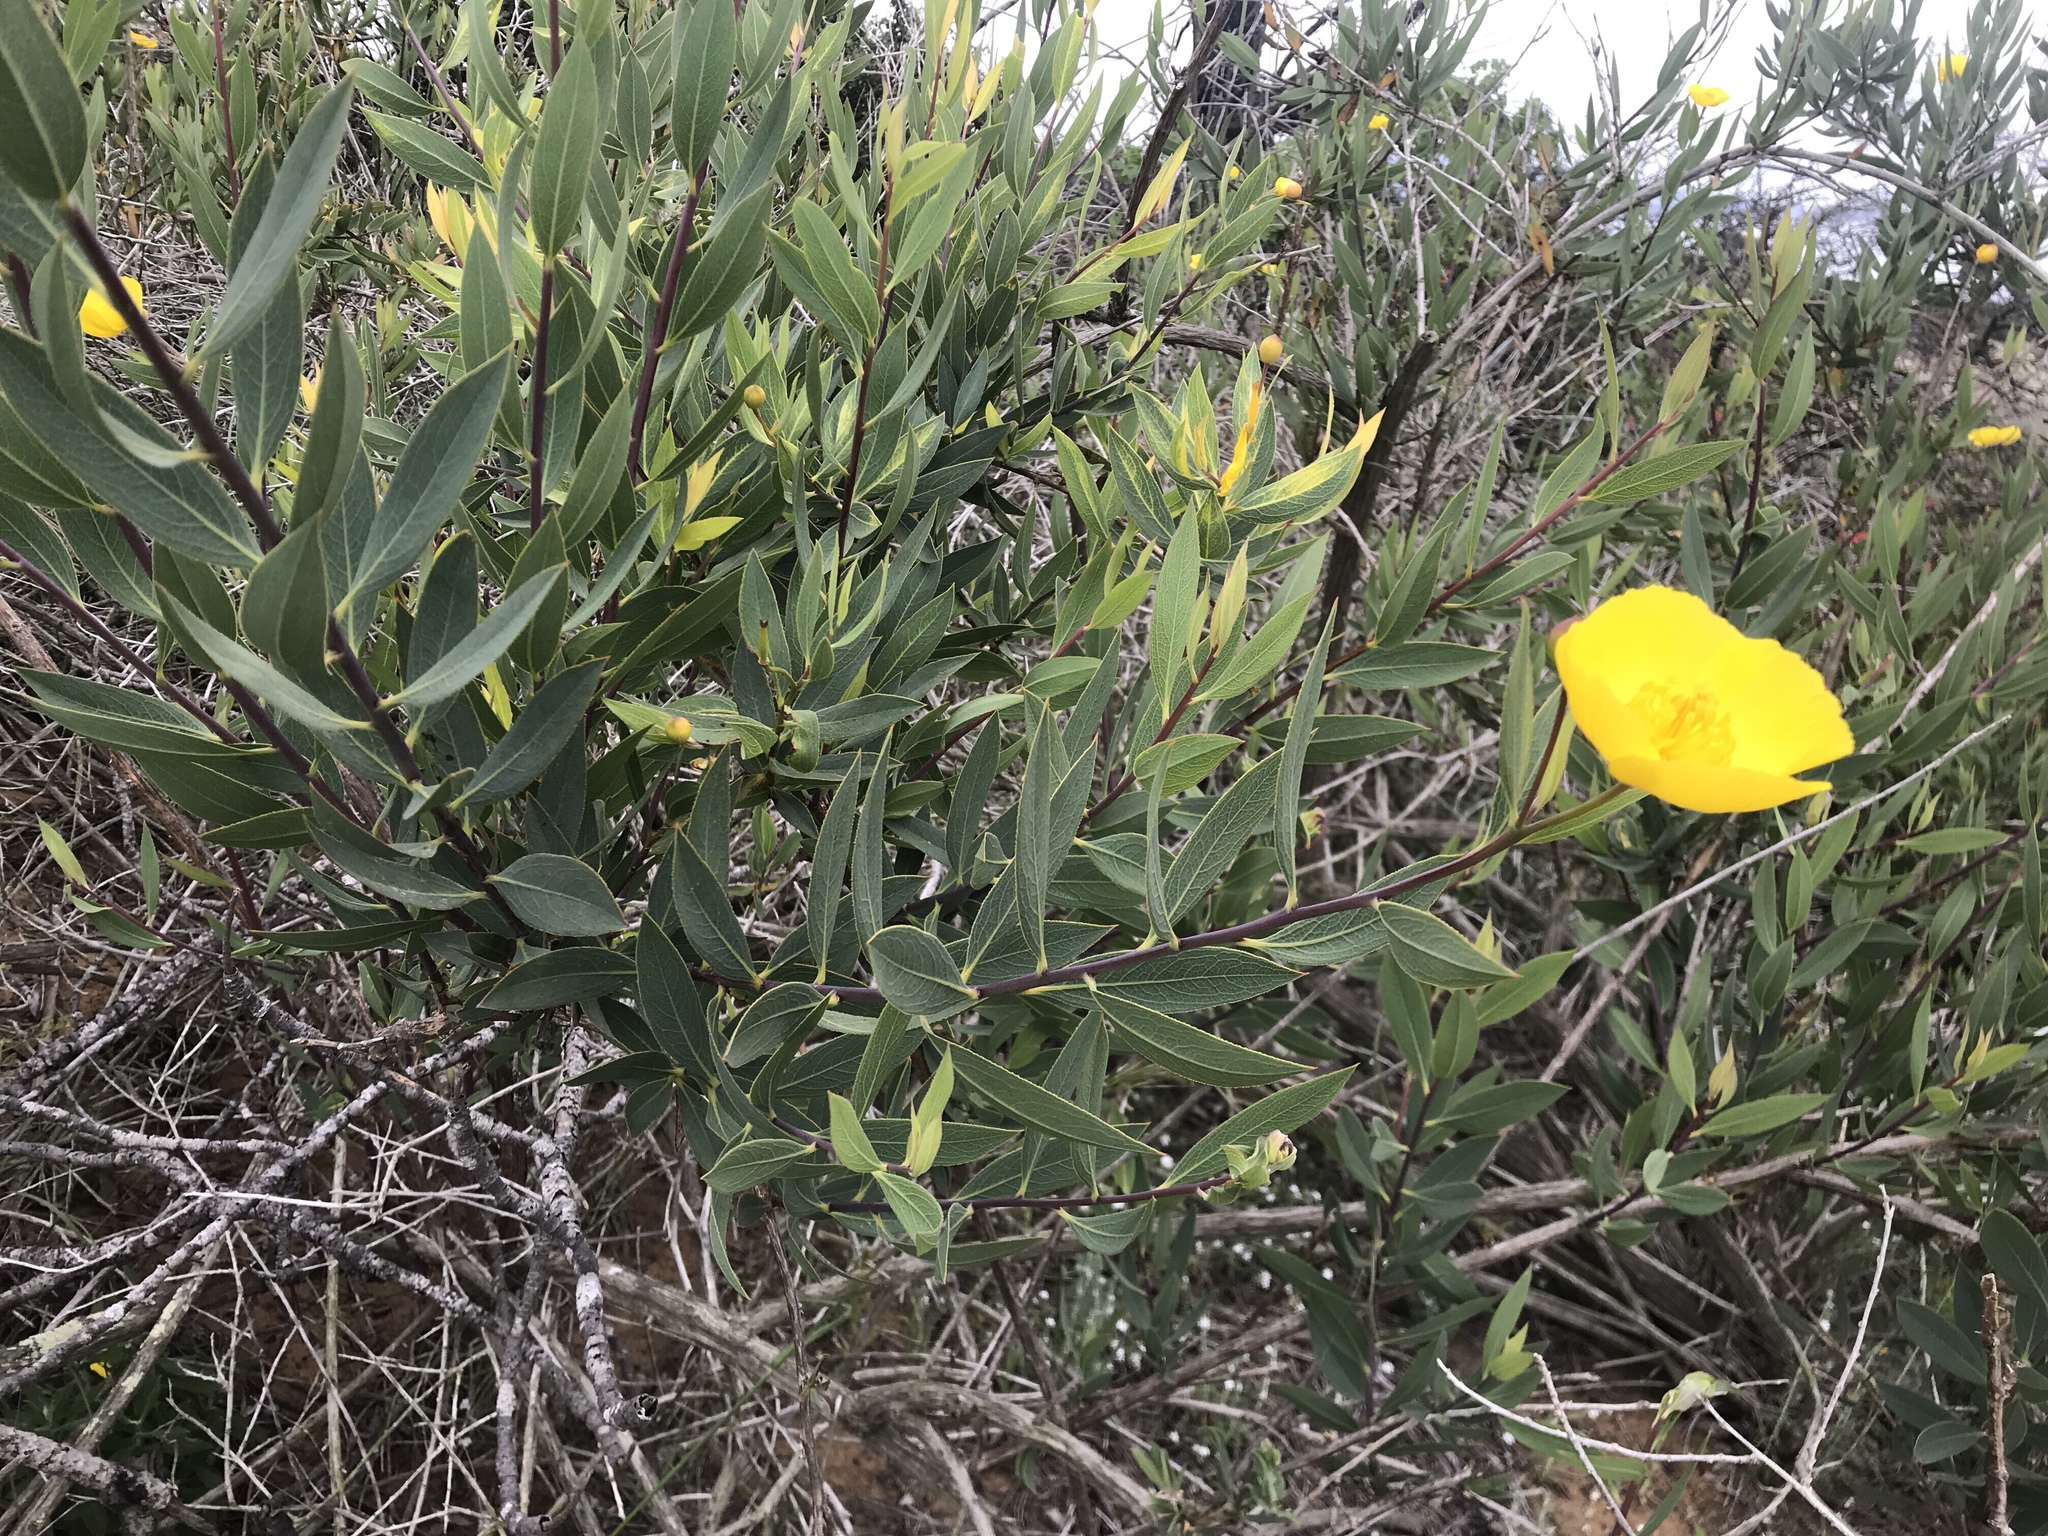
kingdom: Plantae
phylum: Tracheophyta
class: Magnoliopsida
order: Ranunculales
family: Papaveraceae
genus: Dendromecon
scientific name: Dendromecon rigida
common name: Tree poppy
